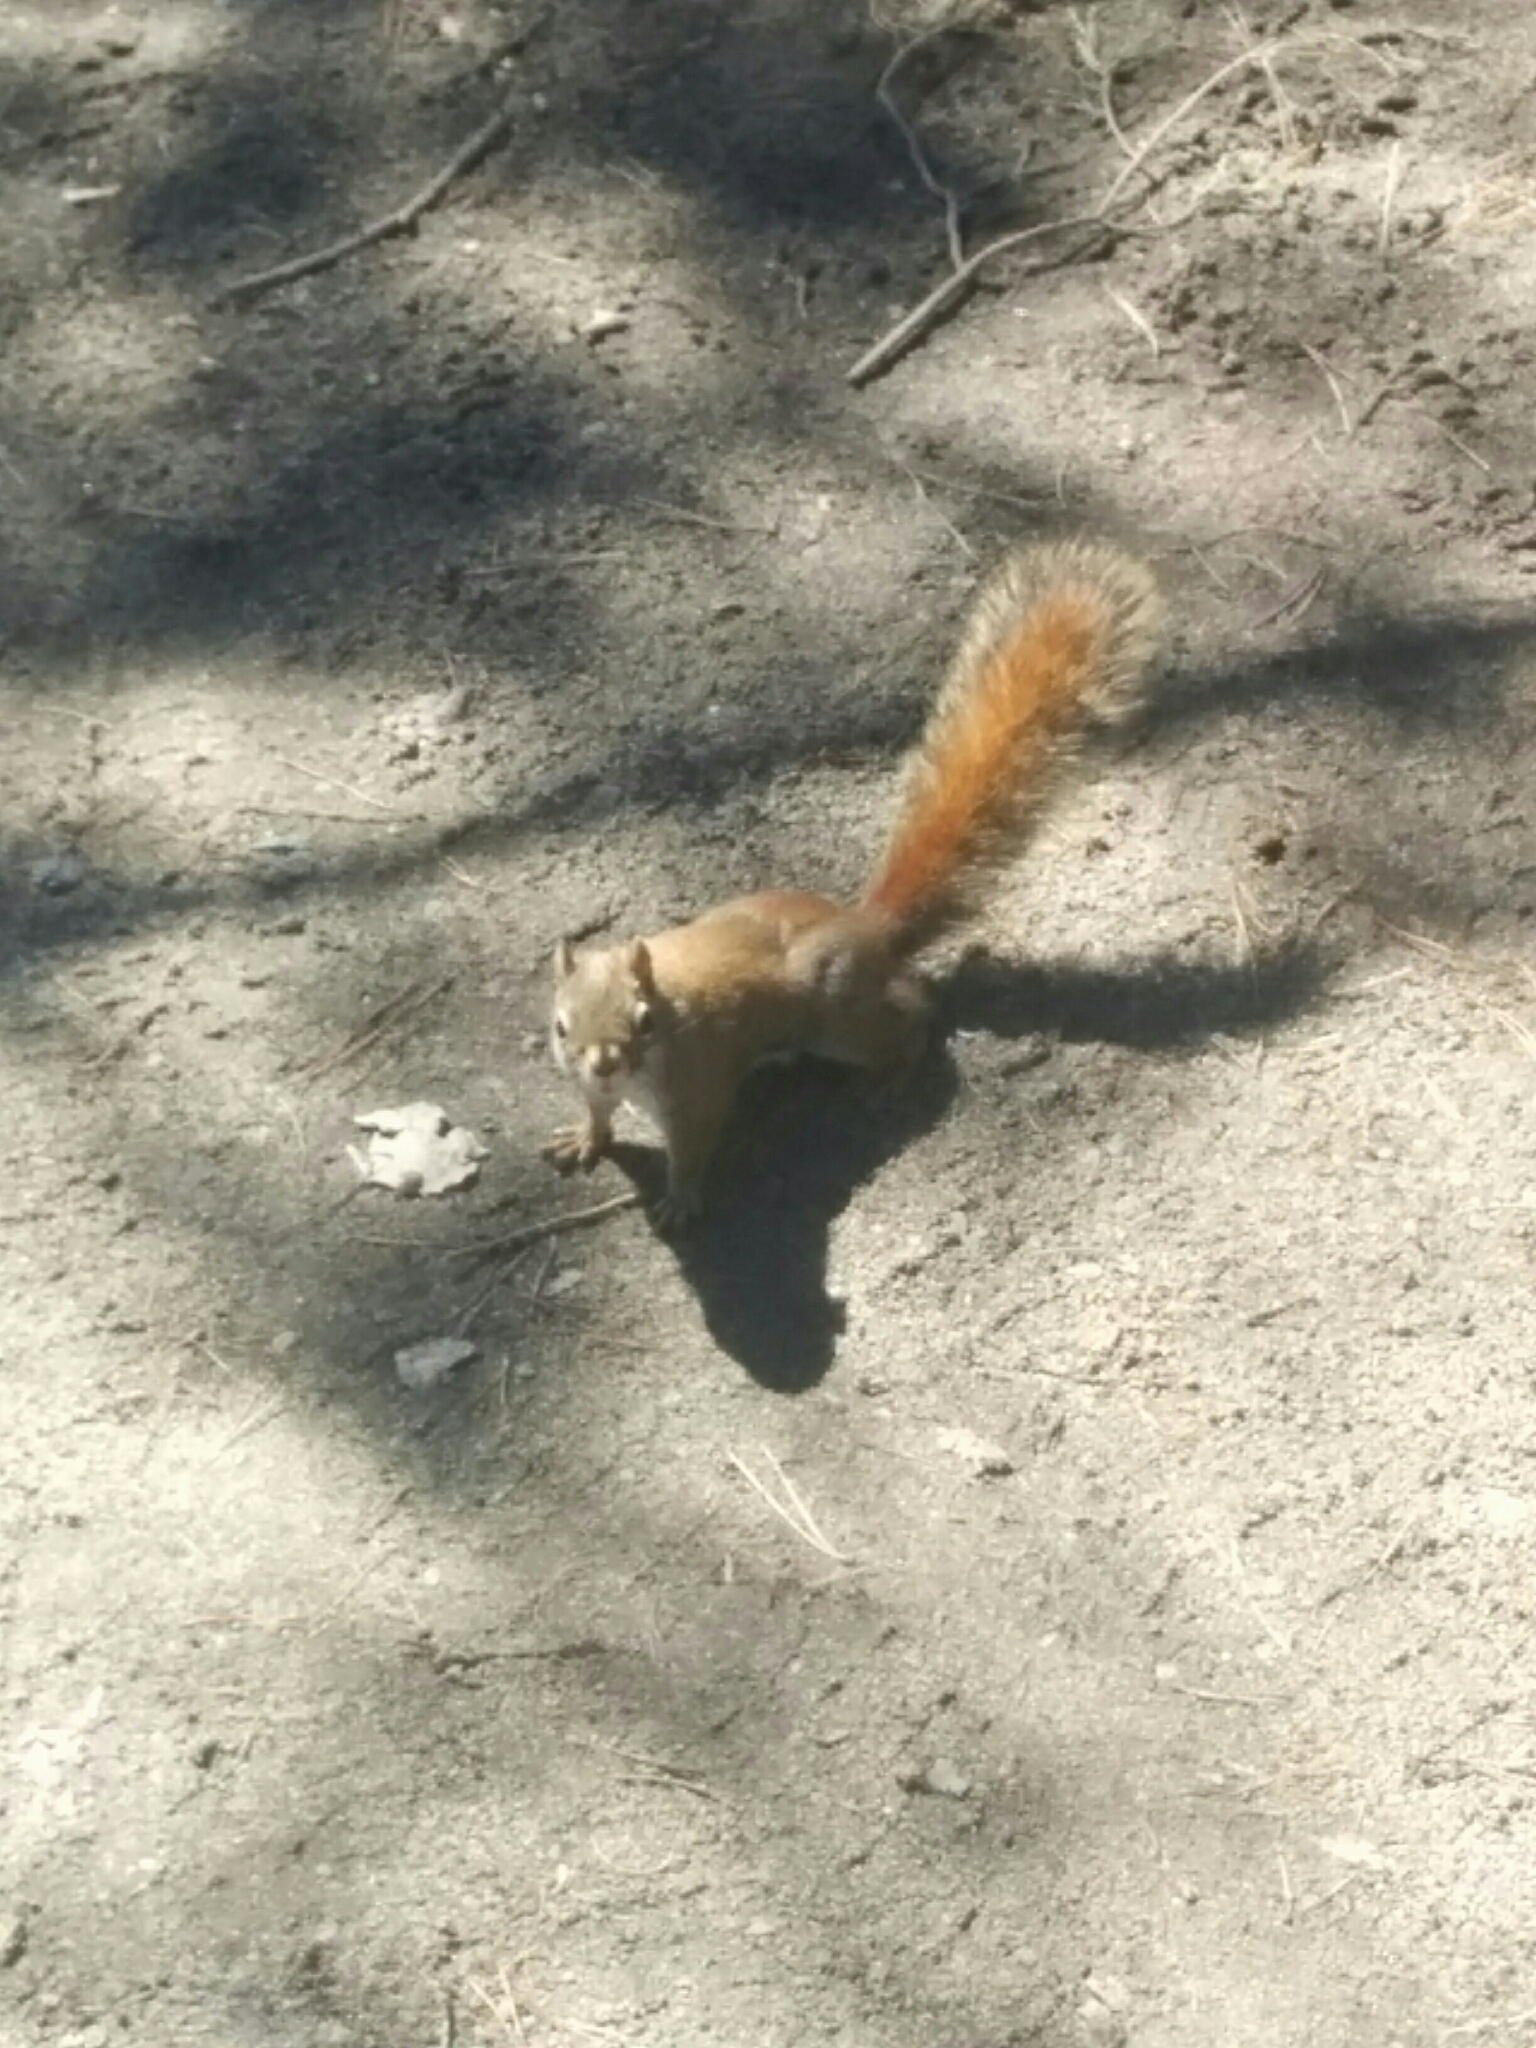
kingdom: Animalia
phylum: Chordata
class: Mammalia
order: Rodentia
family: Sciuridae
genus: Tamiasciurus
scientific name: Tamiasciurus hudsonicus
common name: Red squirrel
